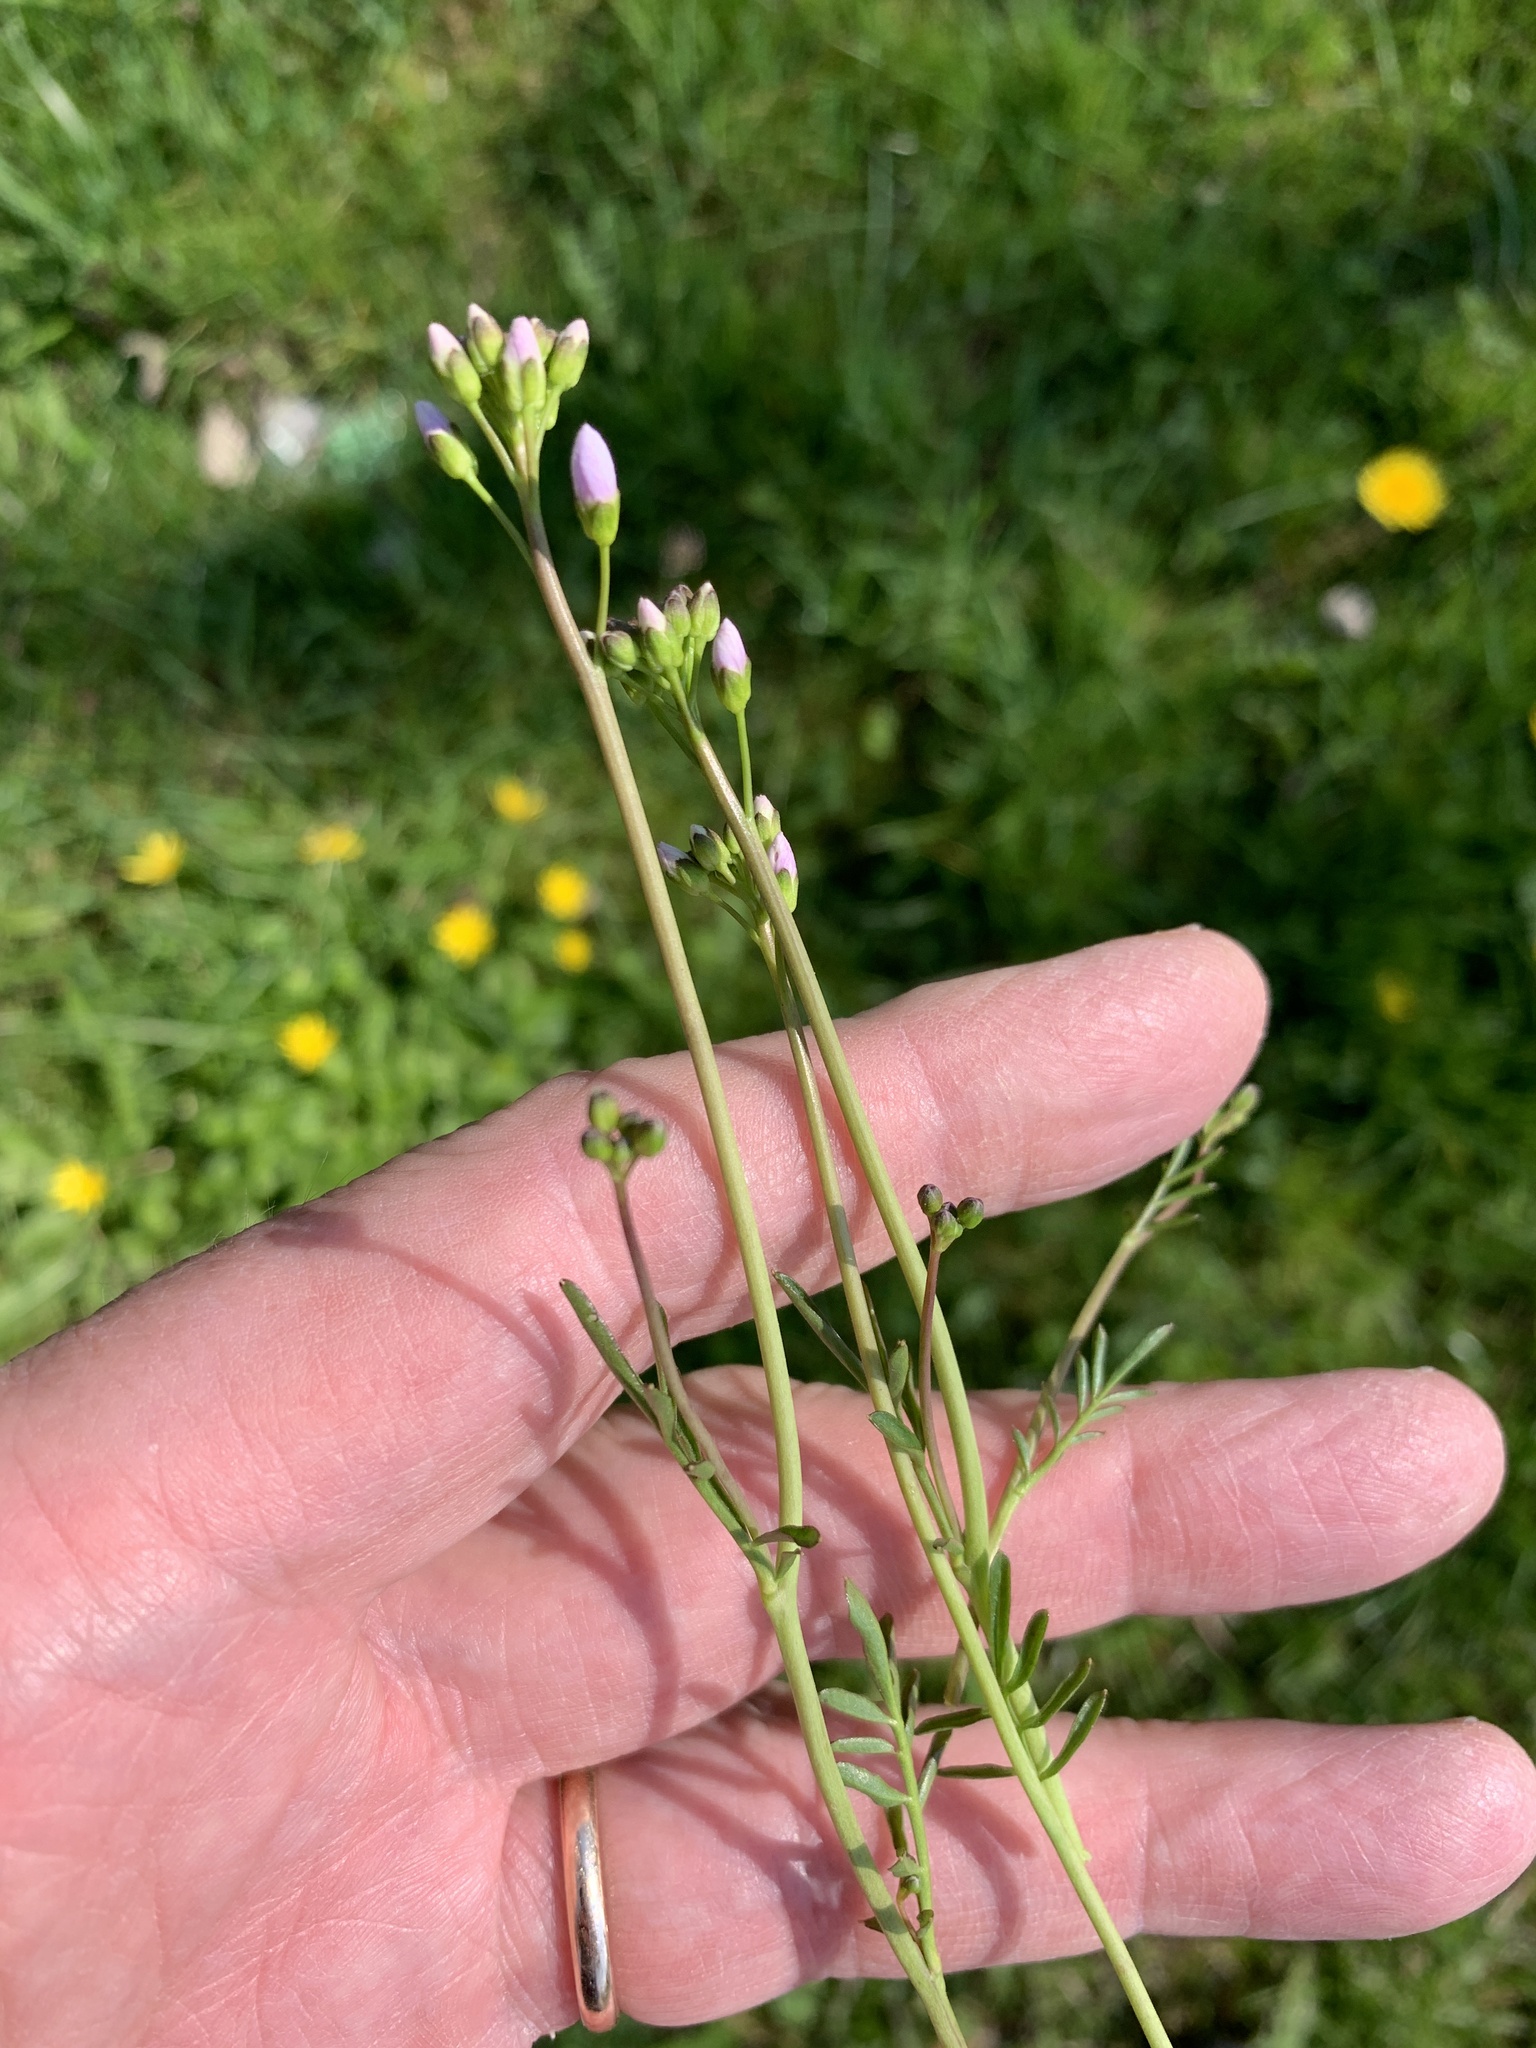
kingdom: Plantae
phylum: Tracheophyta
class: Magnoliopsida
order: Brassicales
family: Brassicaceae
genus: Cardamine
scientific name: Cardamine pratensis
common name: Cuckoo flower
